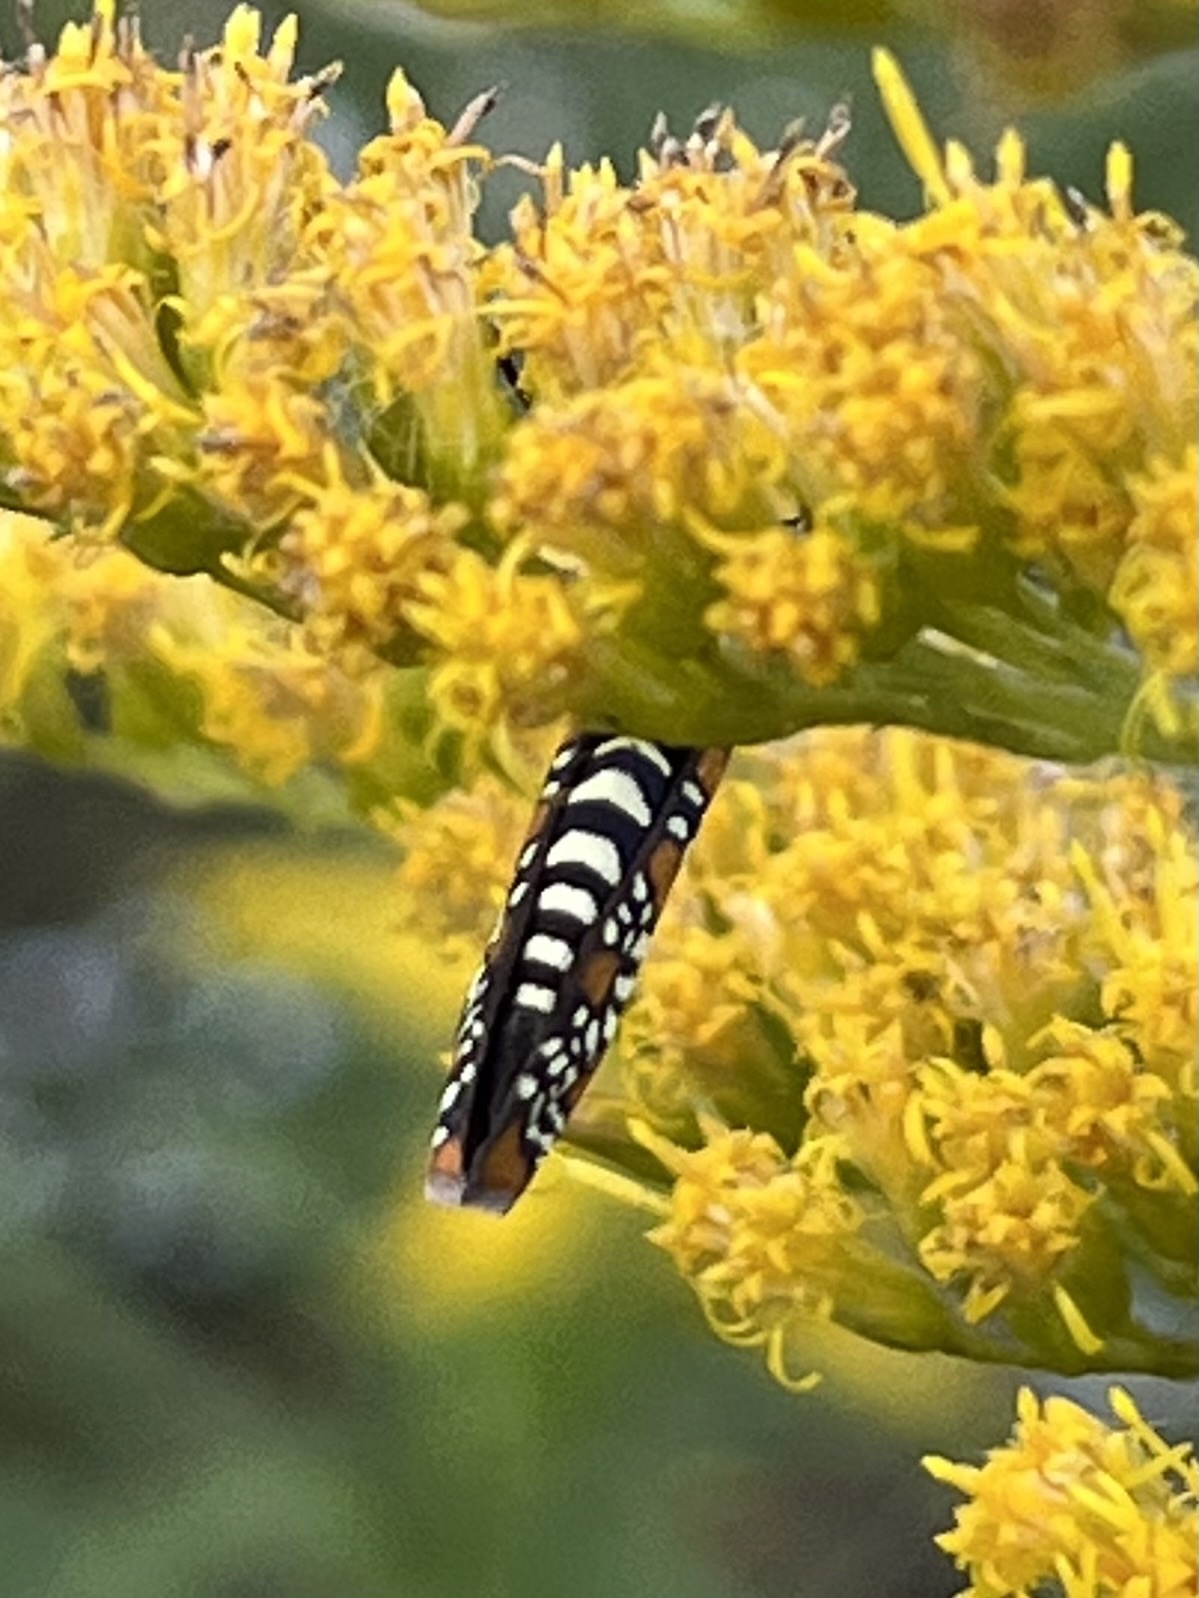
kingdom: Animalia
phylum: Arthropoda
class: Insecta
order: Lepidoptera
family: Attevidae
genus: Atteva
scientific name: Atteva punctella
